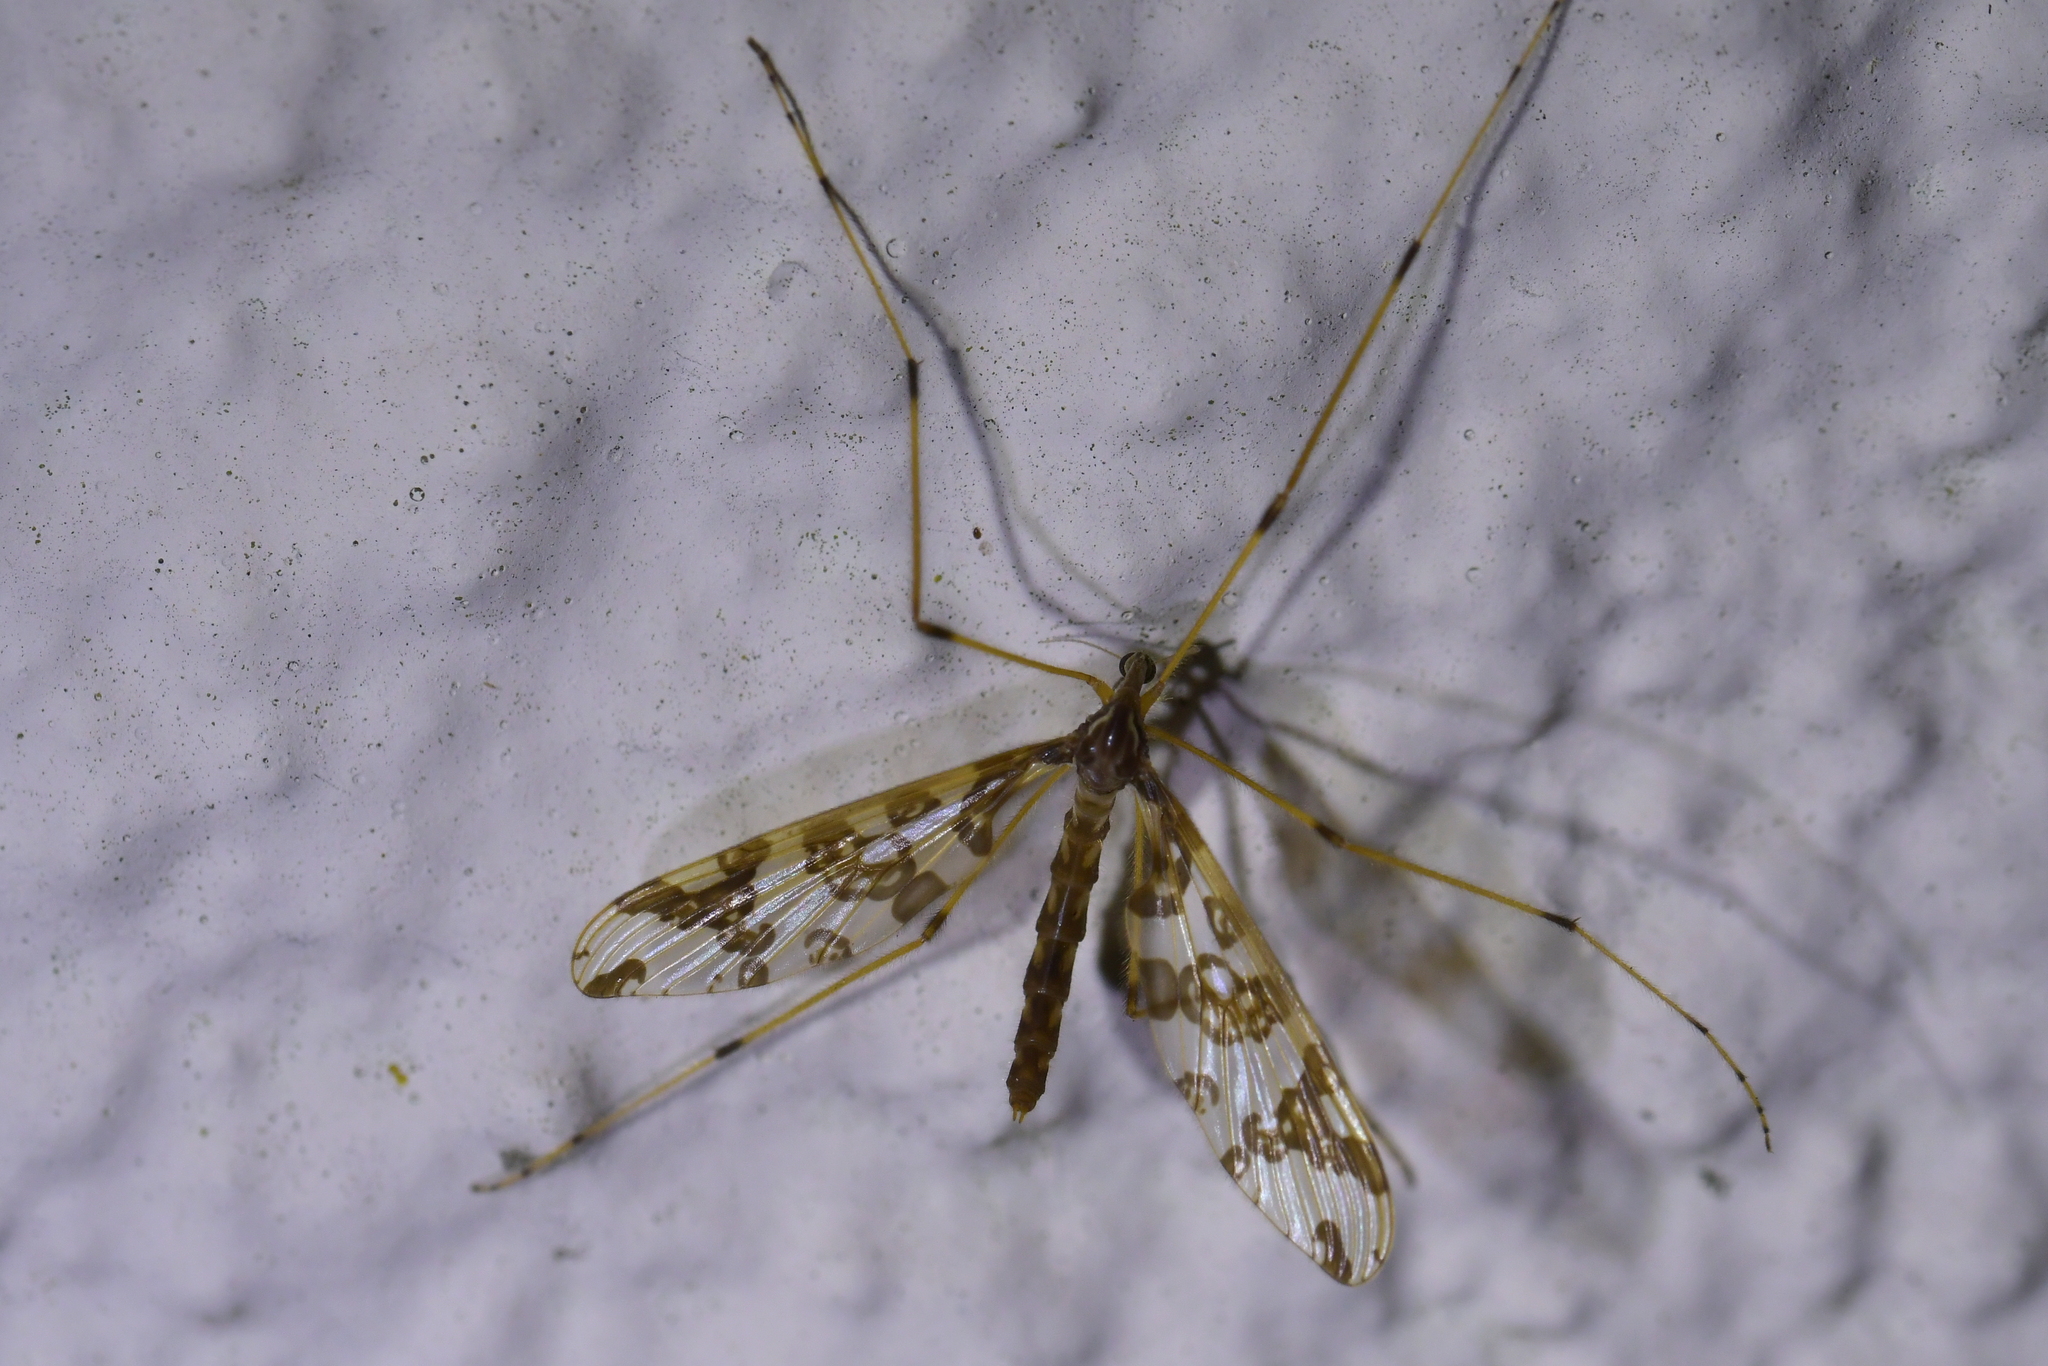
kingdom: Animalia
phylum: Arthropoda
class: Insecta
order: Diptera
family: Tanyderidae
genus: Tanyderus
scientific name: Tanyderus annuliferus
